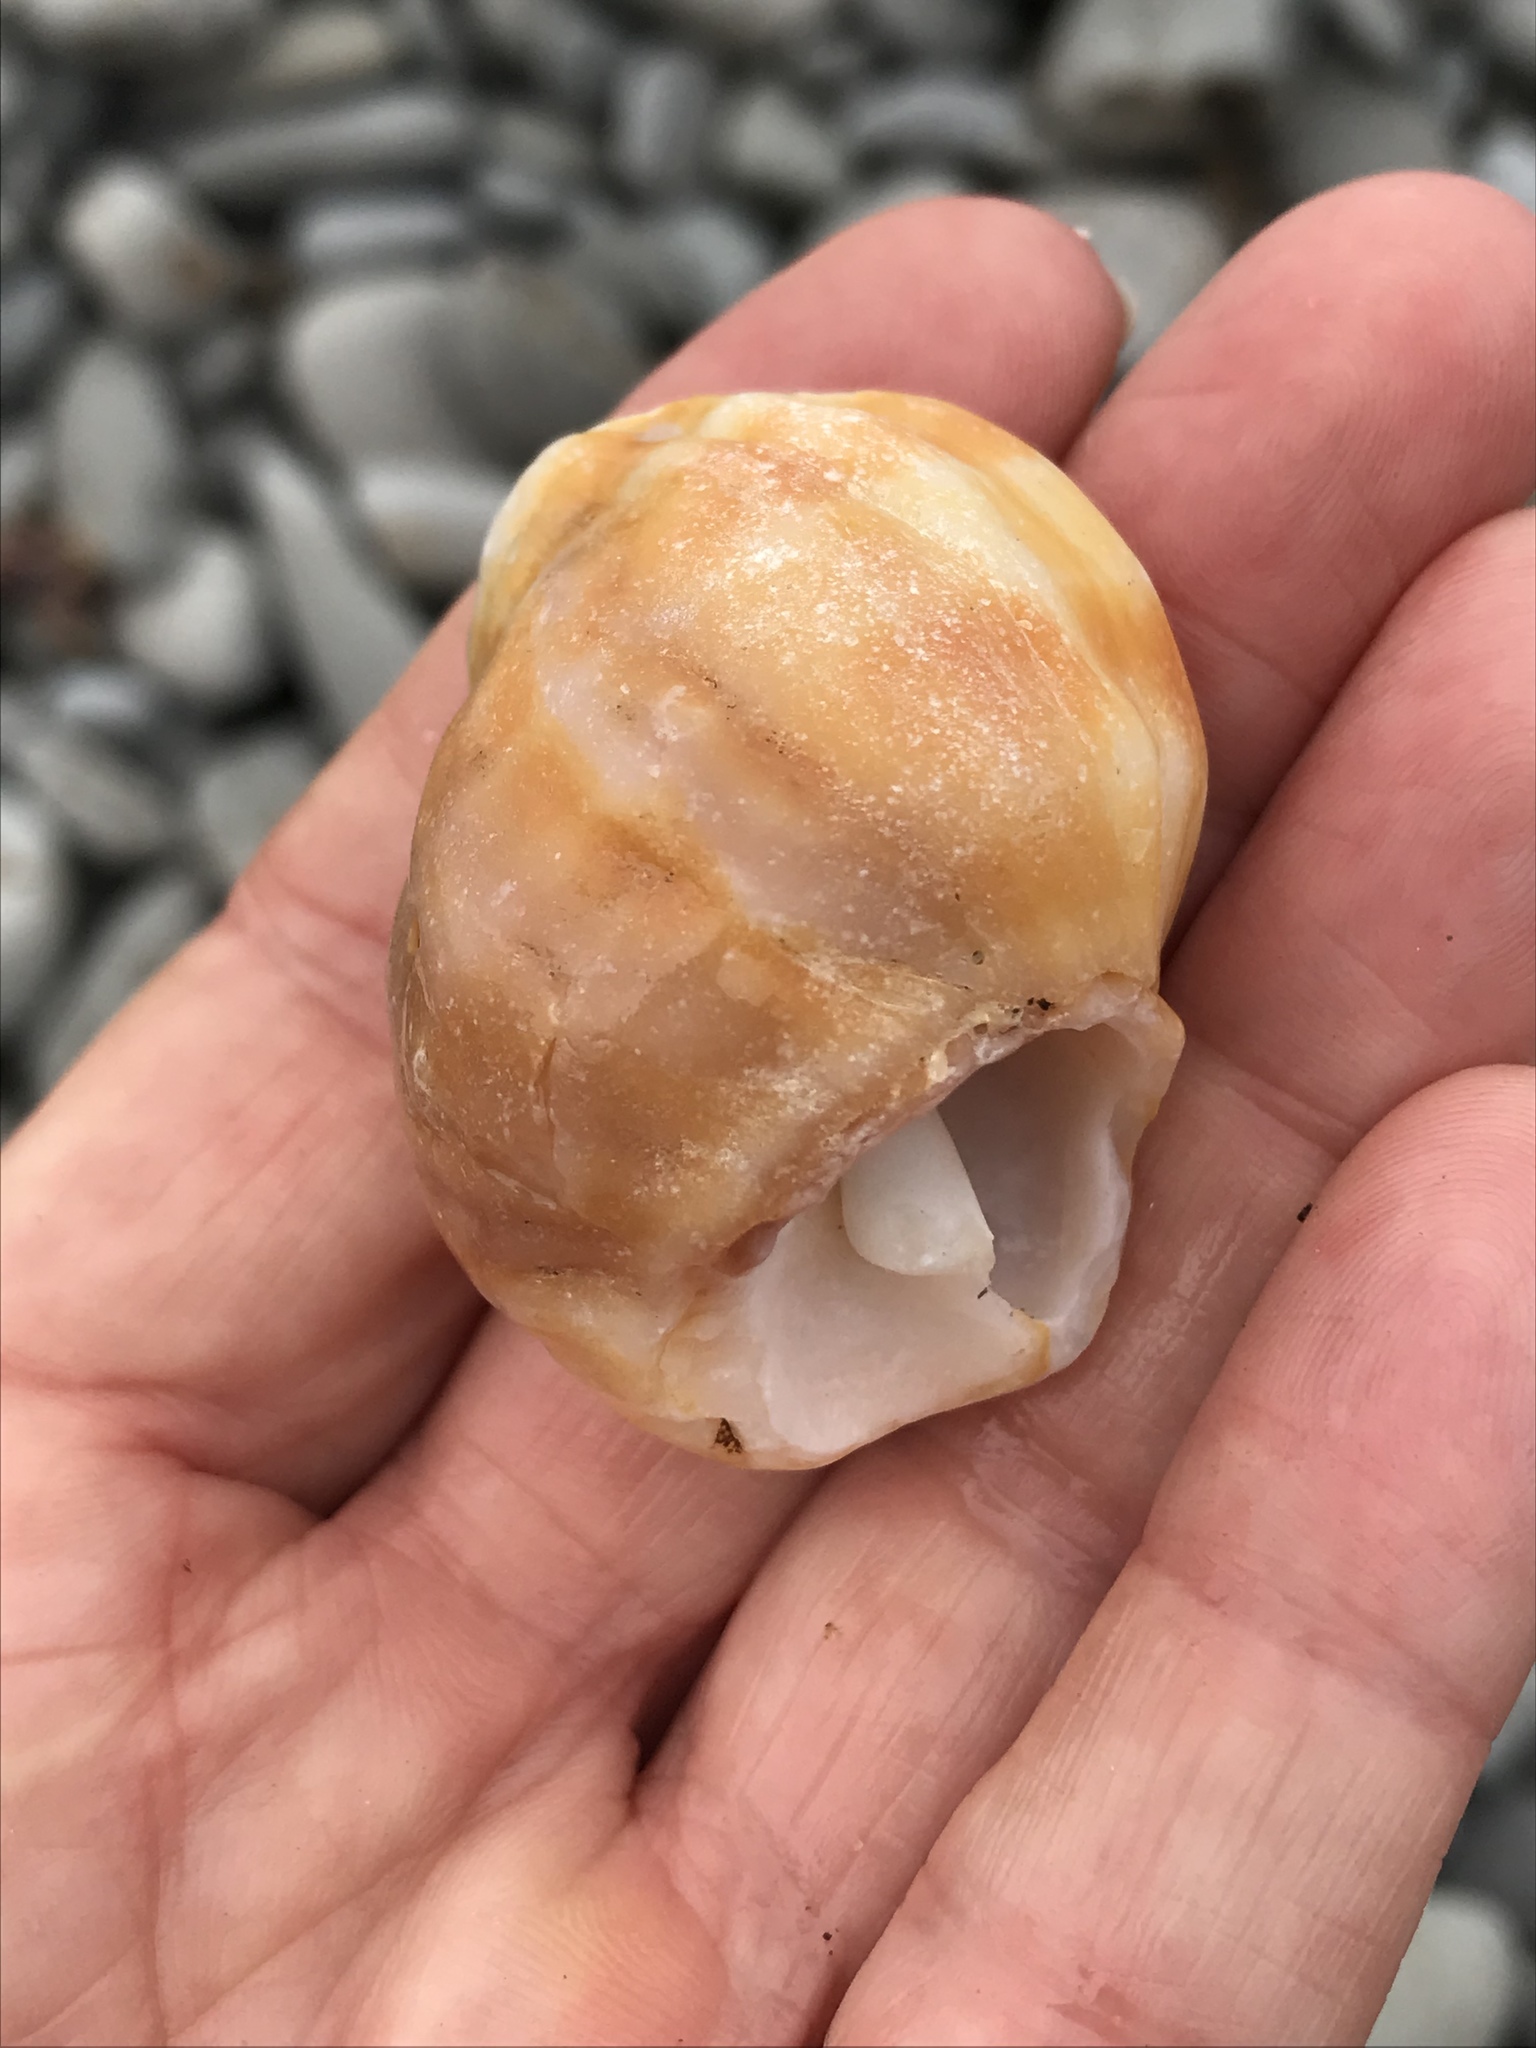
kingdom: Animalia
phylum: Mollusca
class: Gastropoda
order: Neogastropoda
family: Muricidae
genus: Nucella
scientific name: Nucella lamellosa
